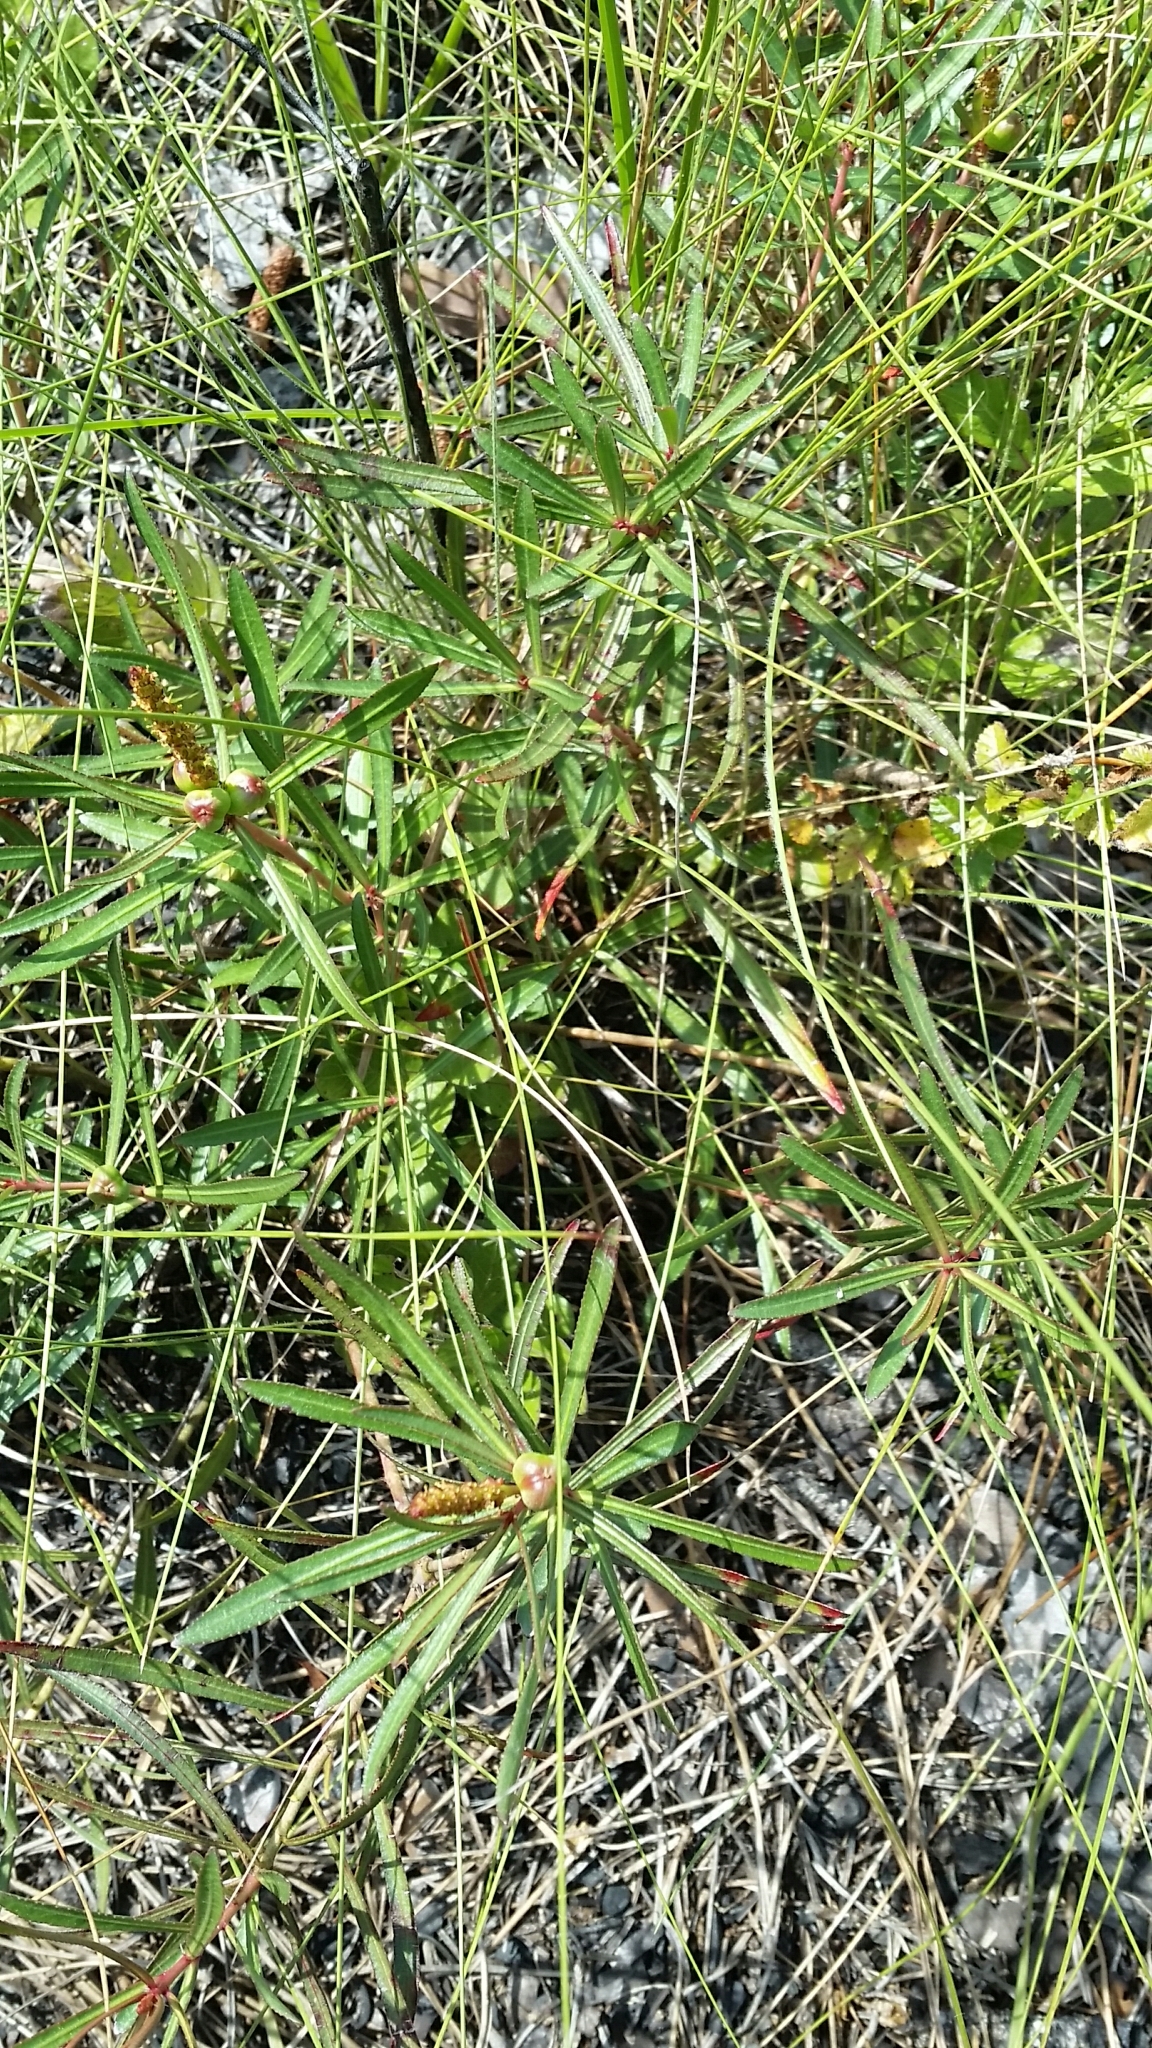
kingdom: Plantae
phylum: Tracheophyta
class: Magnoliopsida
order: Malpighiales
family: Euphorbiaceae
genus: Stillingia
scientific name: Stillingia sylvatica
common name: Queen's-delight
